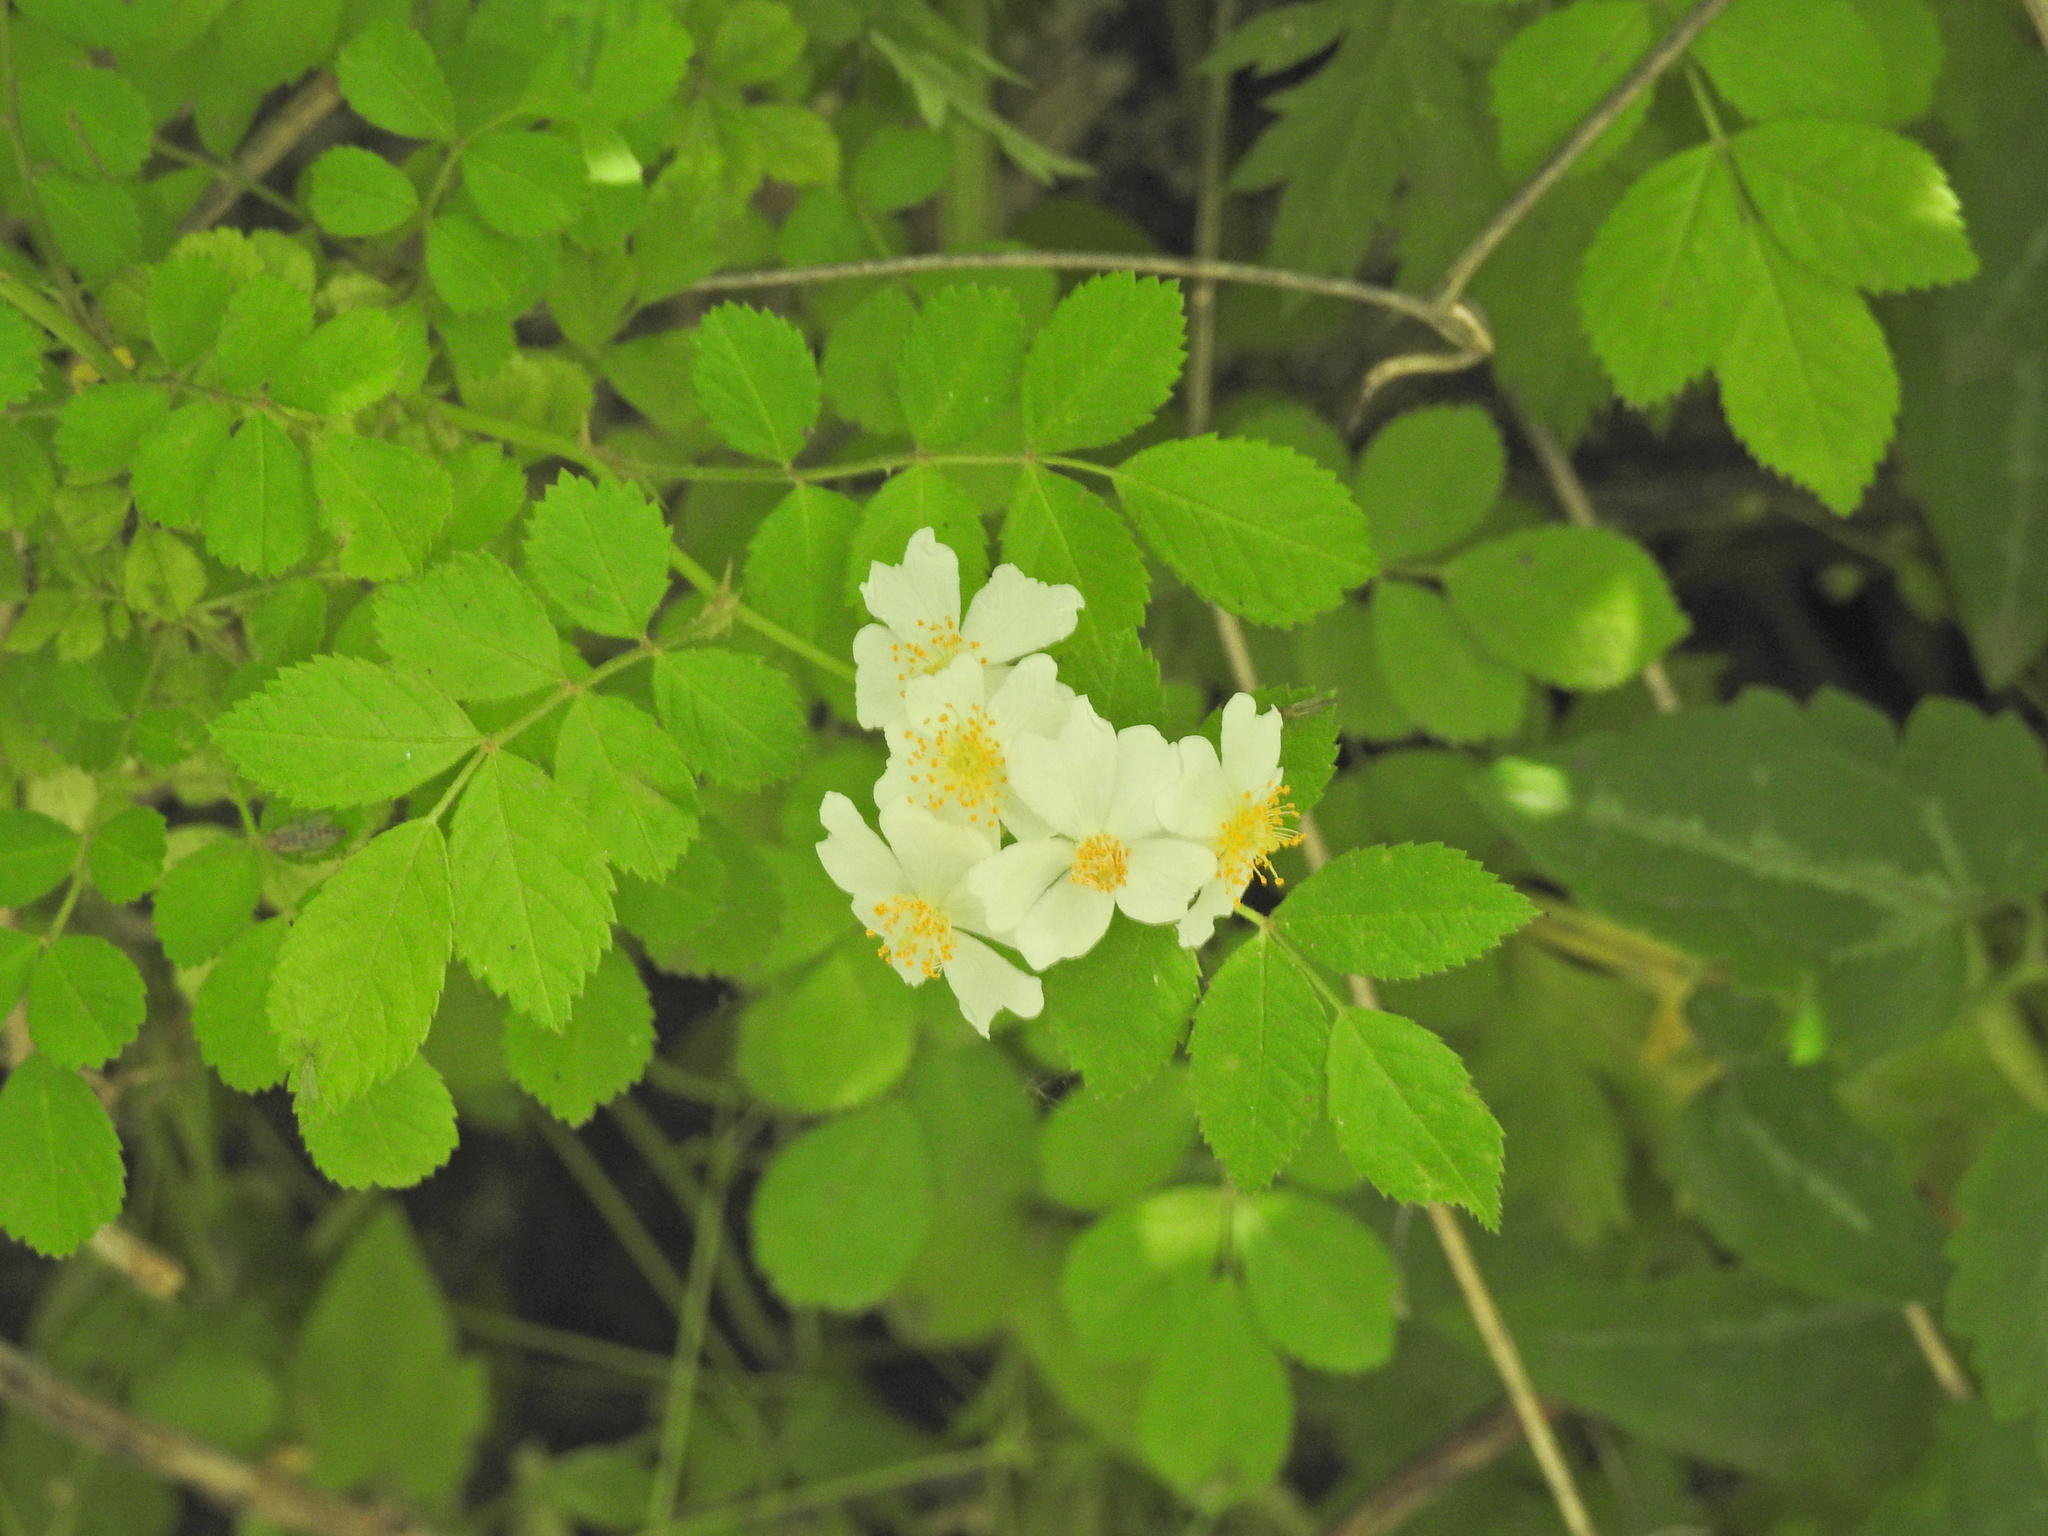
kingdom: Plantae
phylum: Tracheophyta
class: Magnoliopsida
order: Rosales
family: Rosaceae
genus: Rosa
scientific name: Rosa multiflora
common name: Multiflora rose
